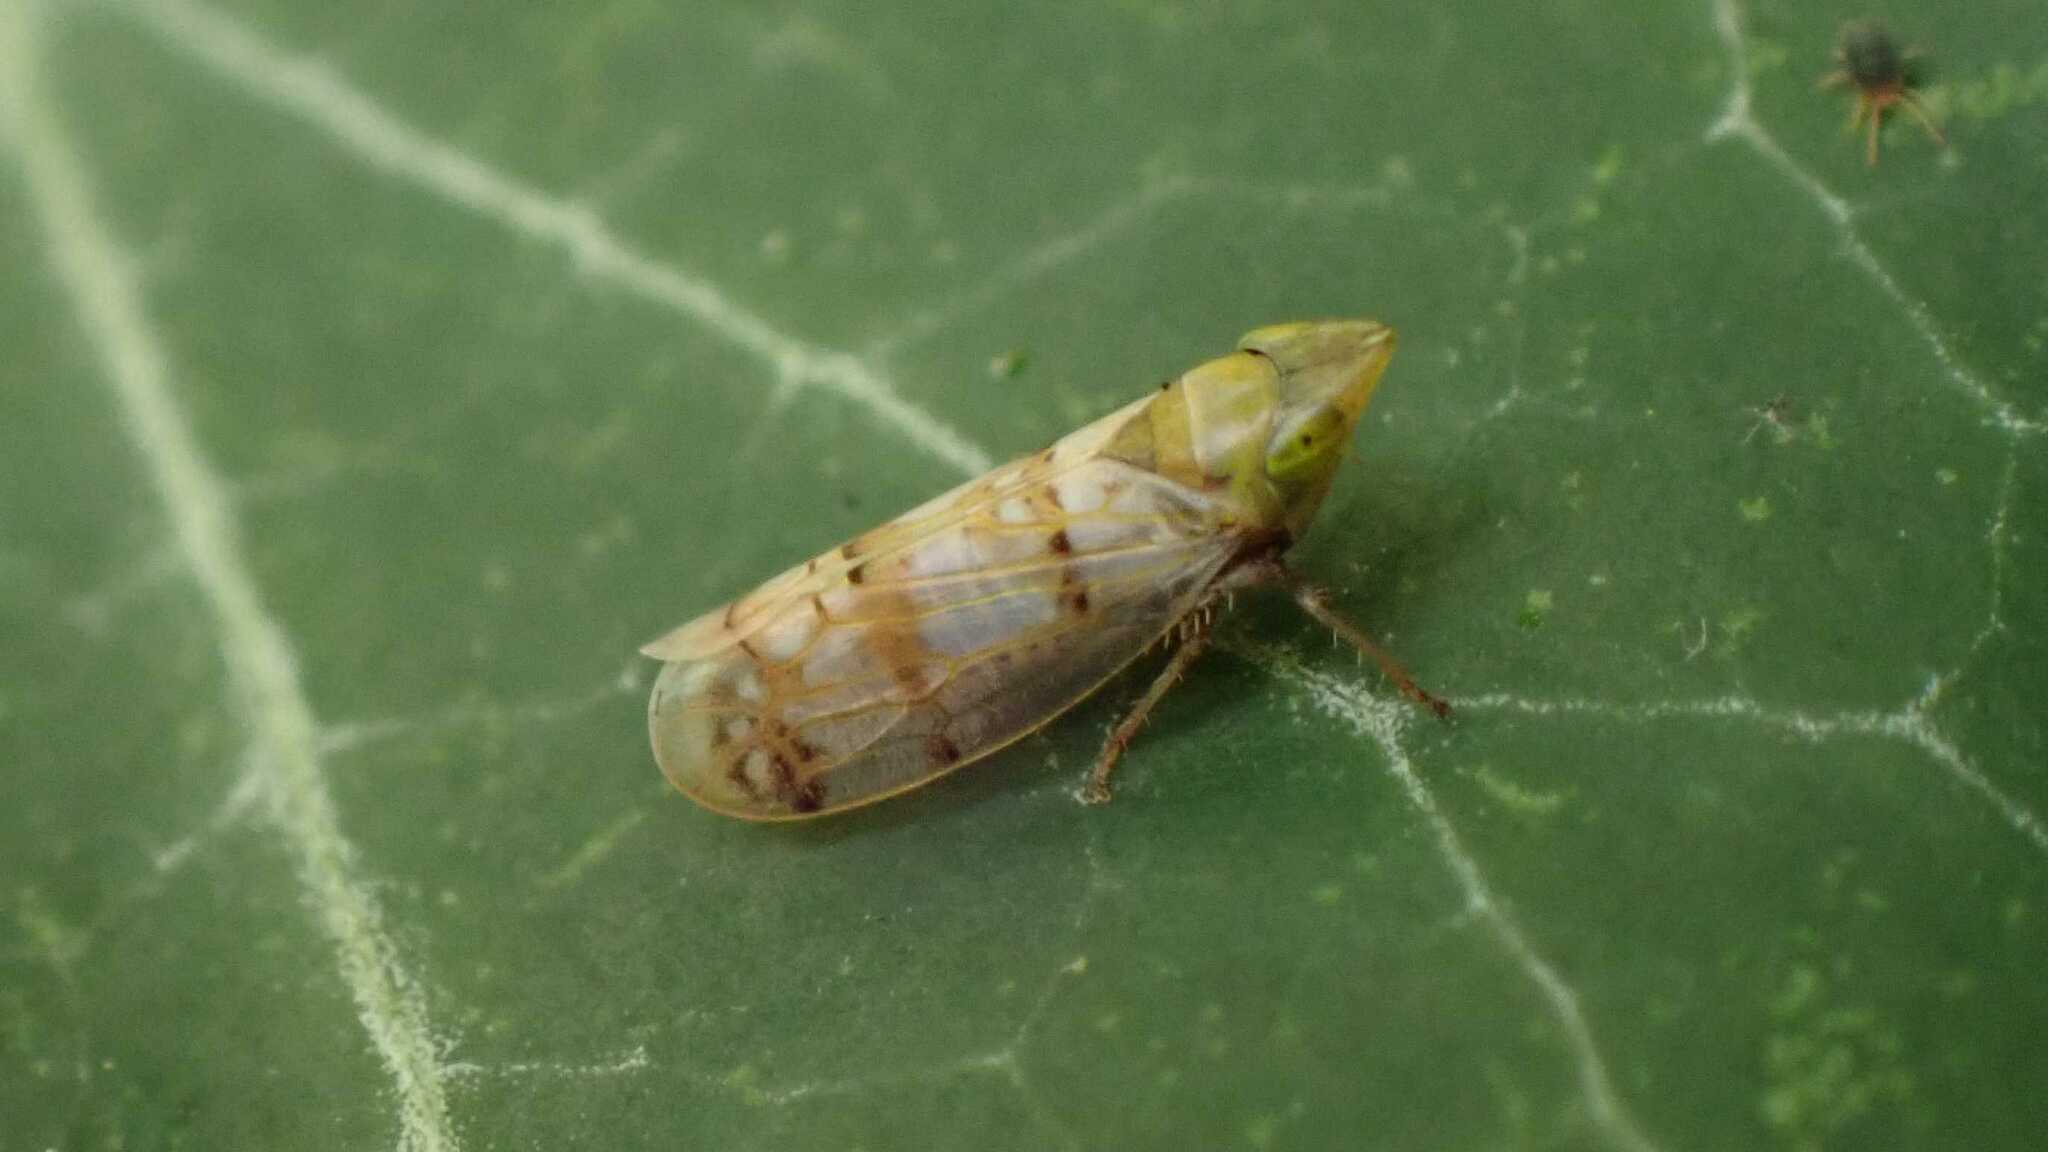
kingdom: Animalia
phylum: Arthropoda
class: Insecta
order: Hemiptera
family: Cicadellidae
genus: Japananus
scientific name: Japananus hyalinus
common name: The japanese maple leafhopper
